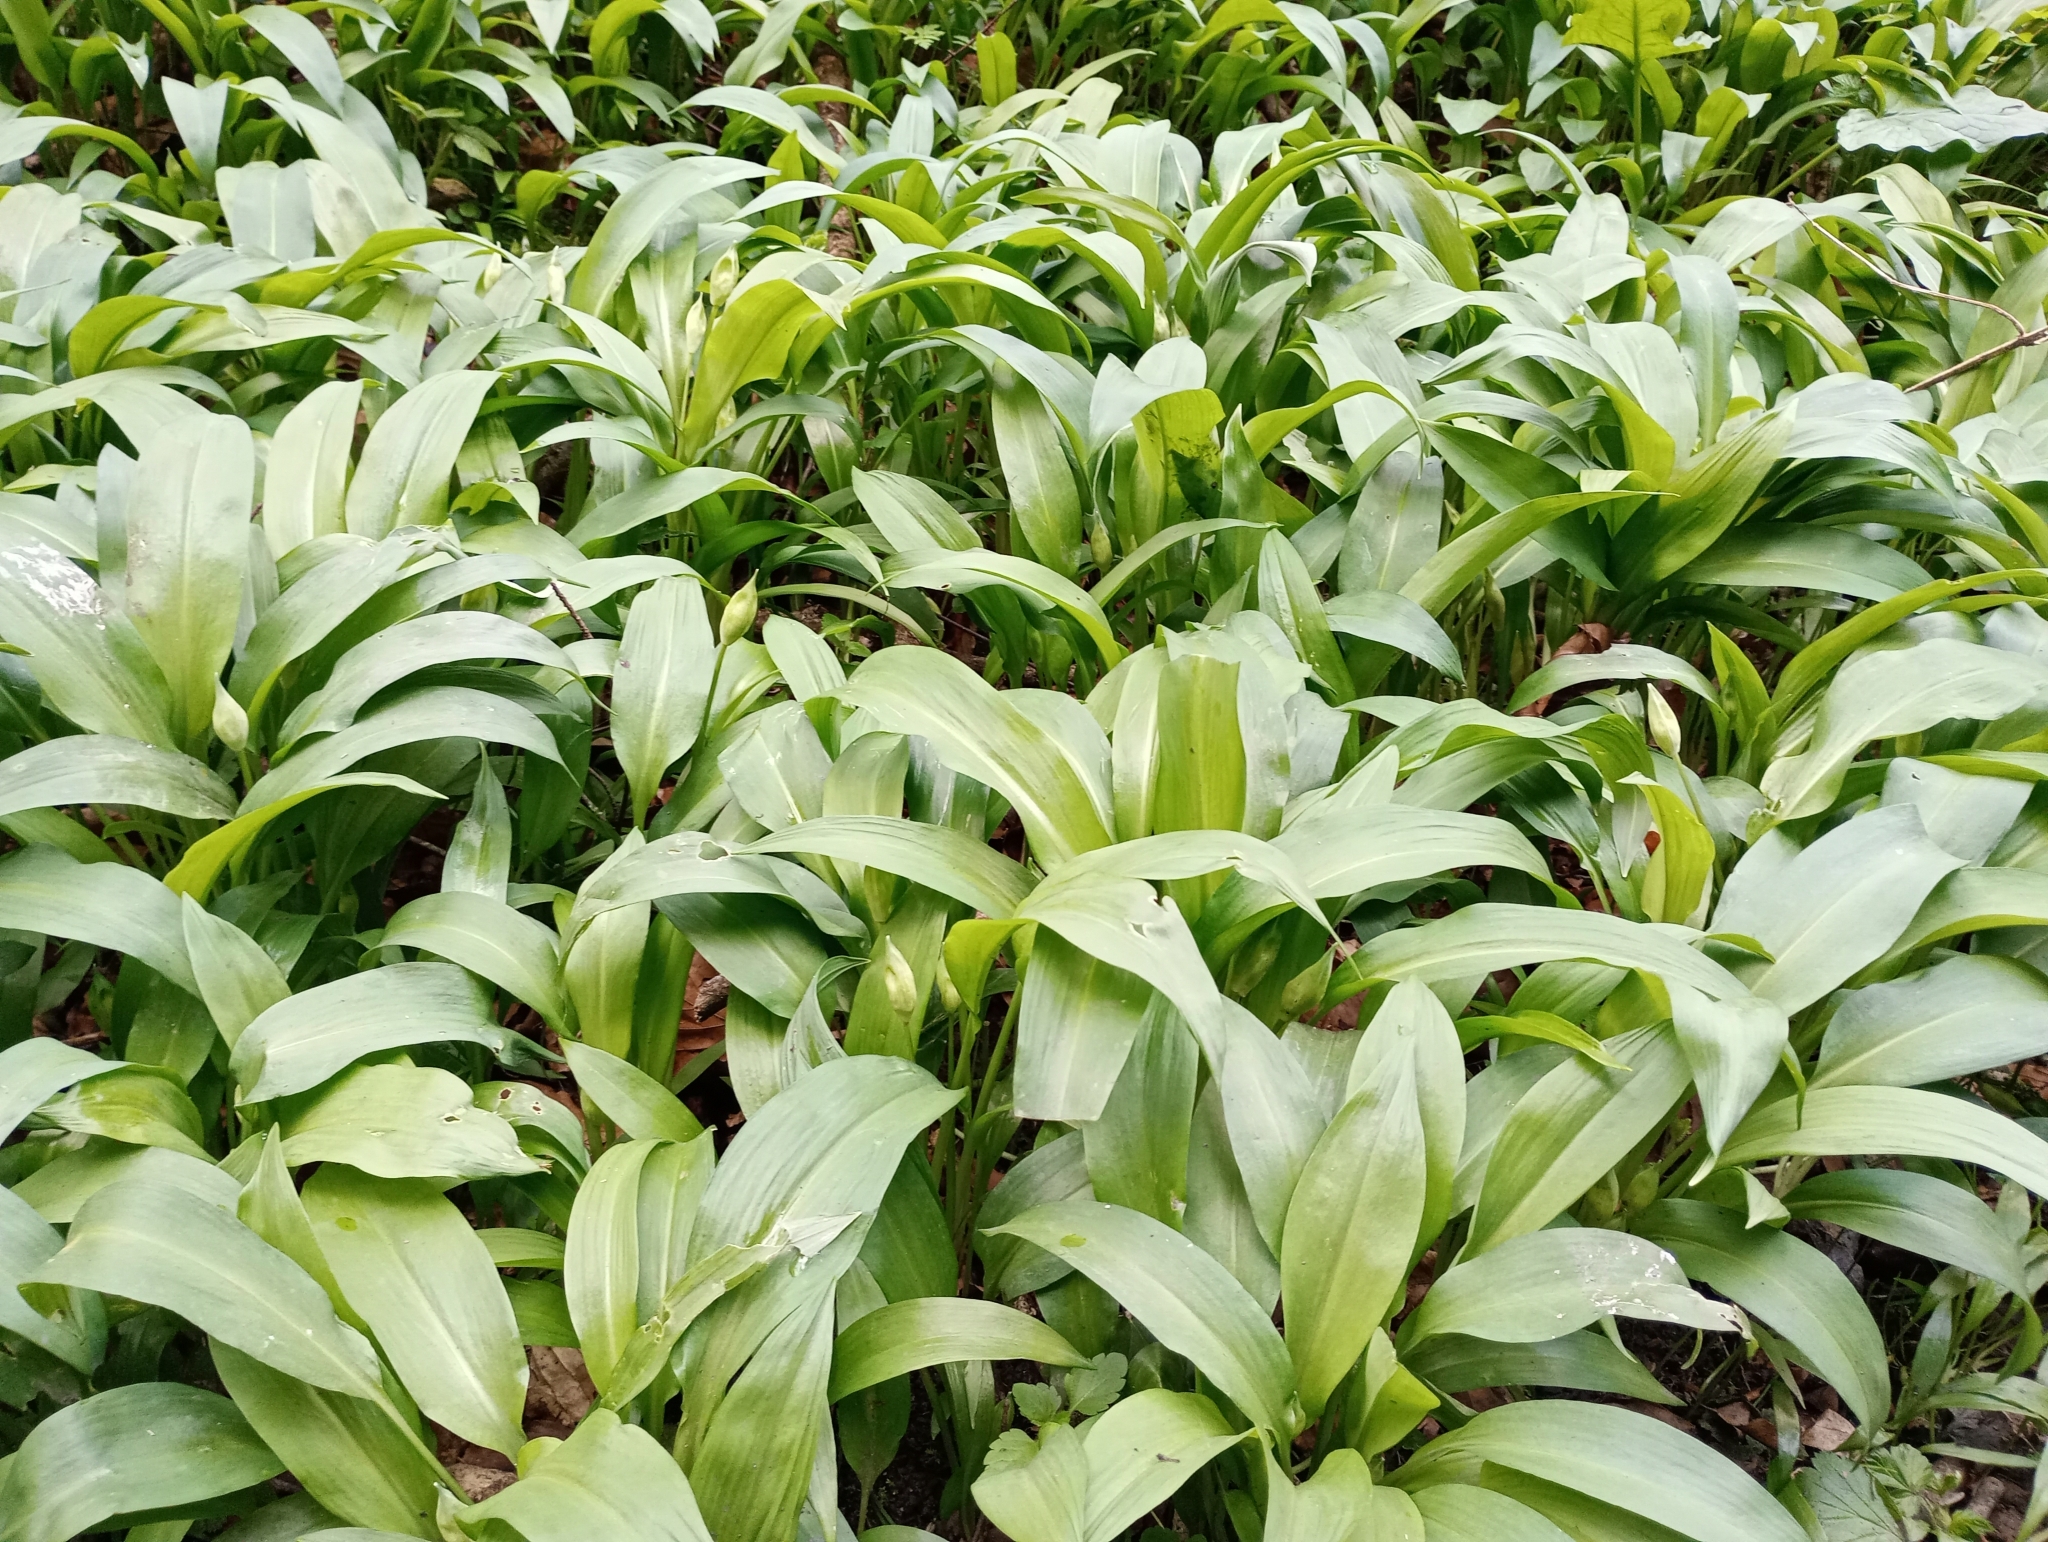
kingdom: Plantae
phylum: Tracheophyta
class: Liliopsida
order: Asparagales
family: Amaryllidaceae
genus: Allium
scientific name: Allium ursinum
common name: Ramsons
